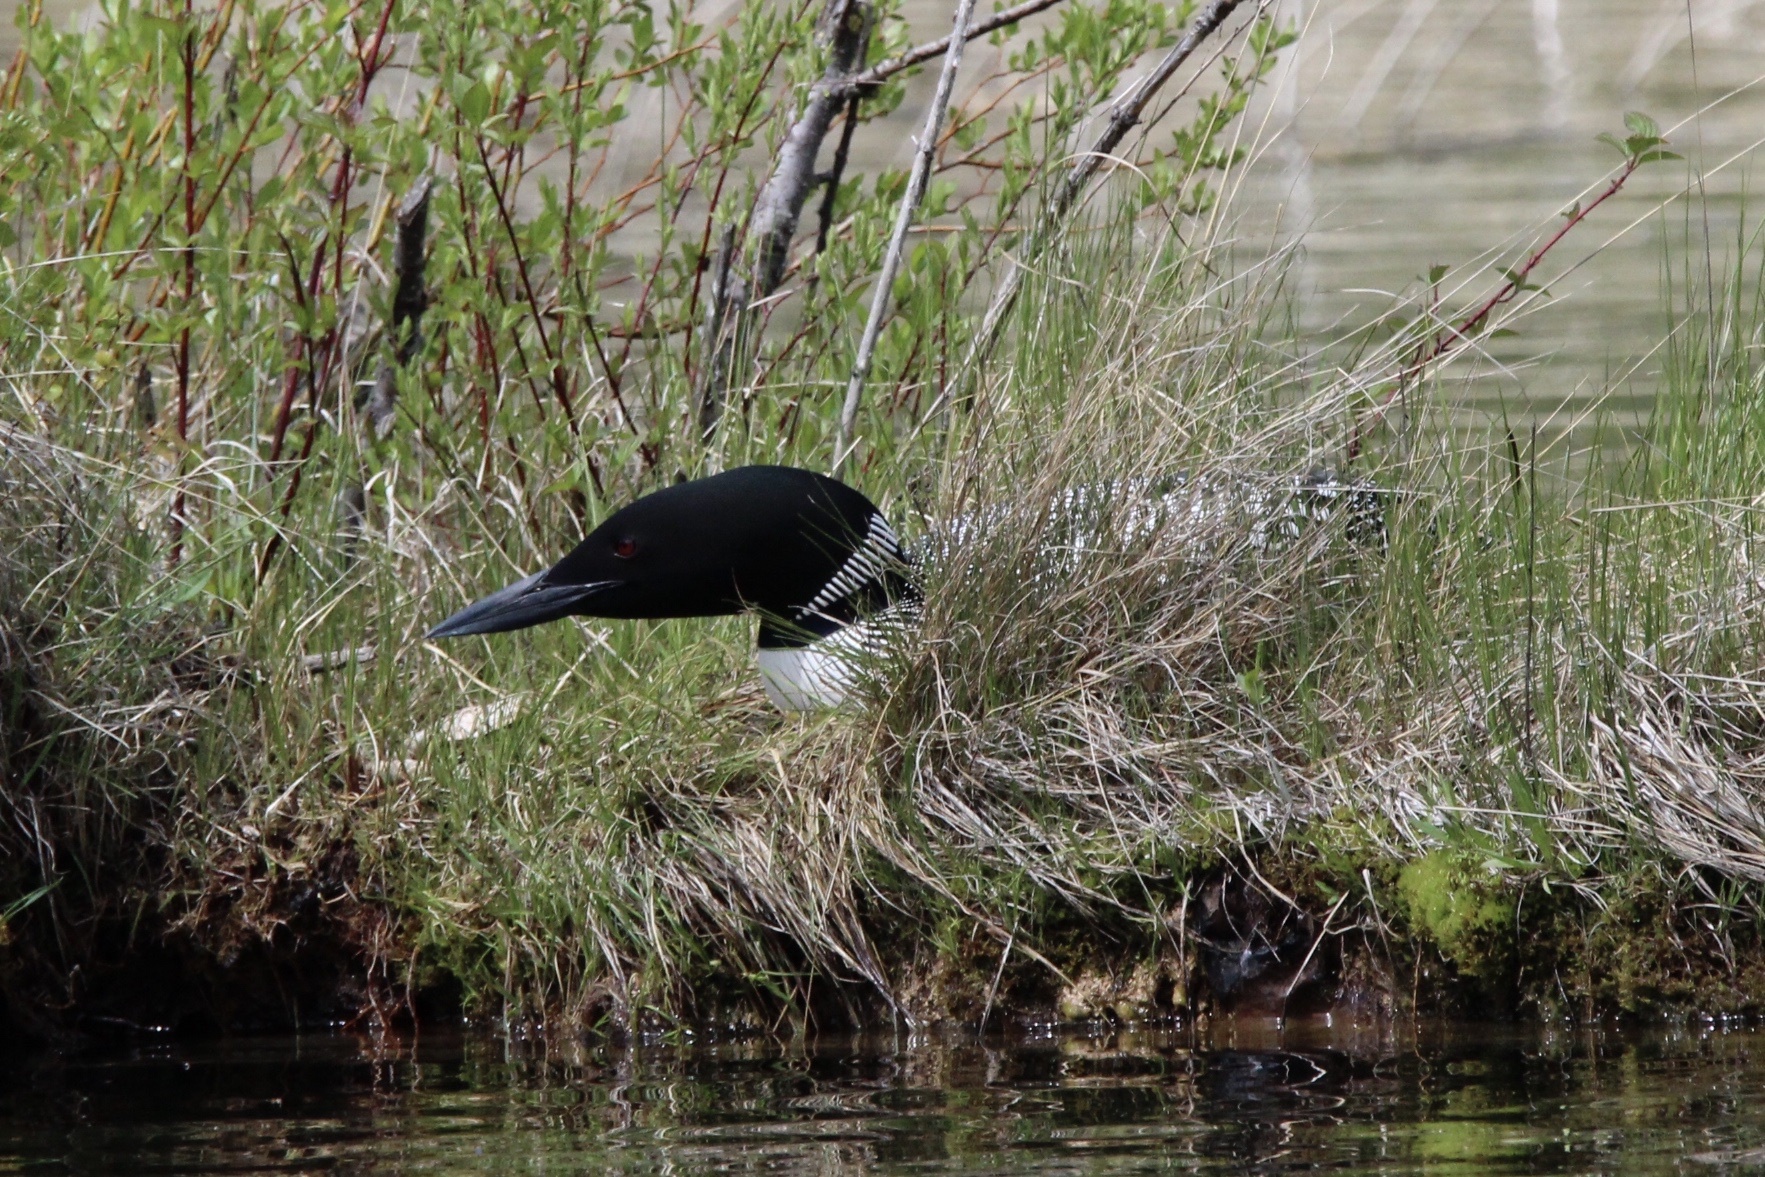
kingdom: Animalia
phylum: Chordata
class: Aves
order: Gaviiformes
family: Gaviidae
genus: Gavia
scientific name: Gavia immer
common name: Common loon
